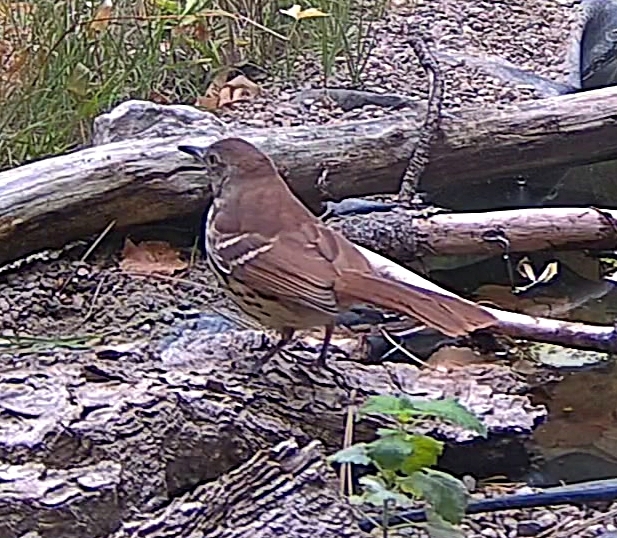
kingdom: Animalia
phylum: Chordata
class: Aves
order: Passeriformes
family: Mimidae
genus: Toxostoma
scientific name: Toxostoma rufum
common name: Brown thrasher
